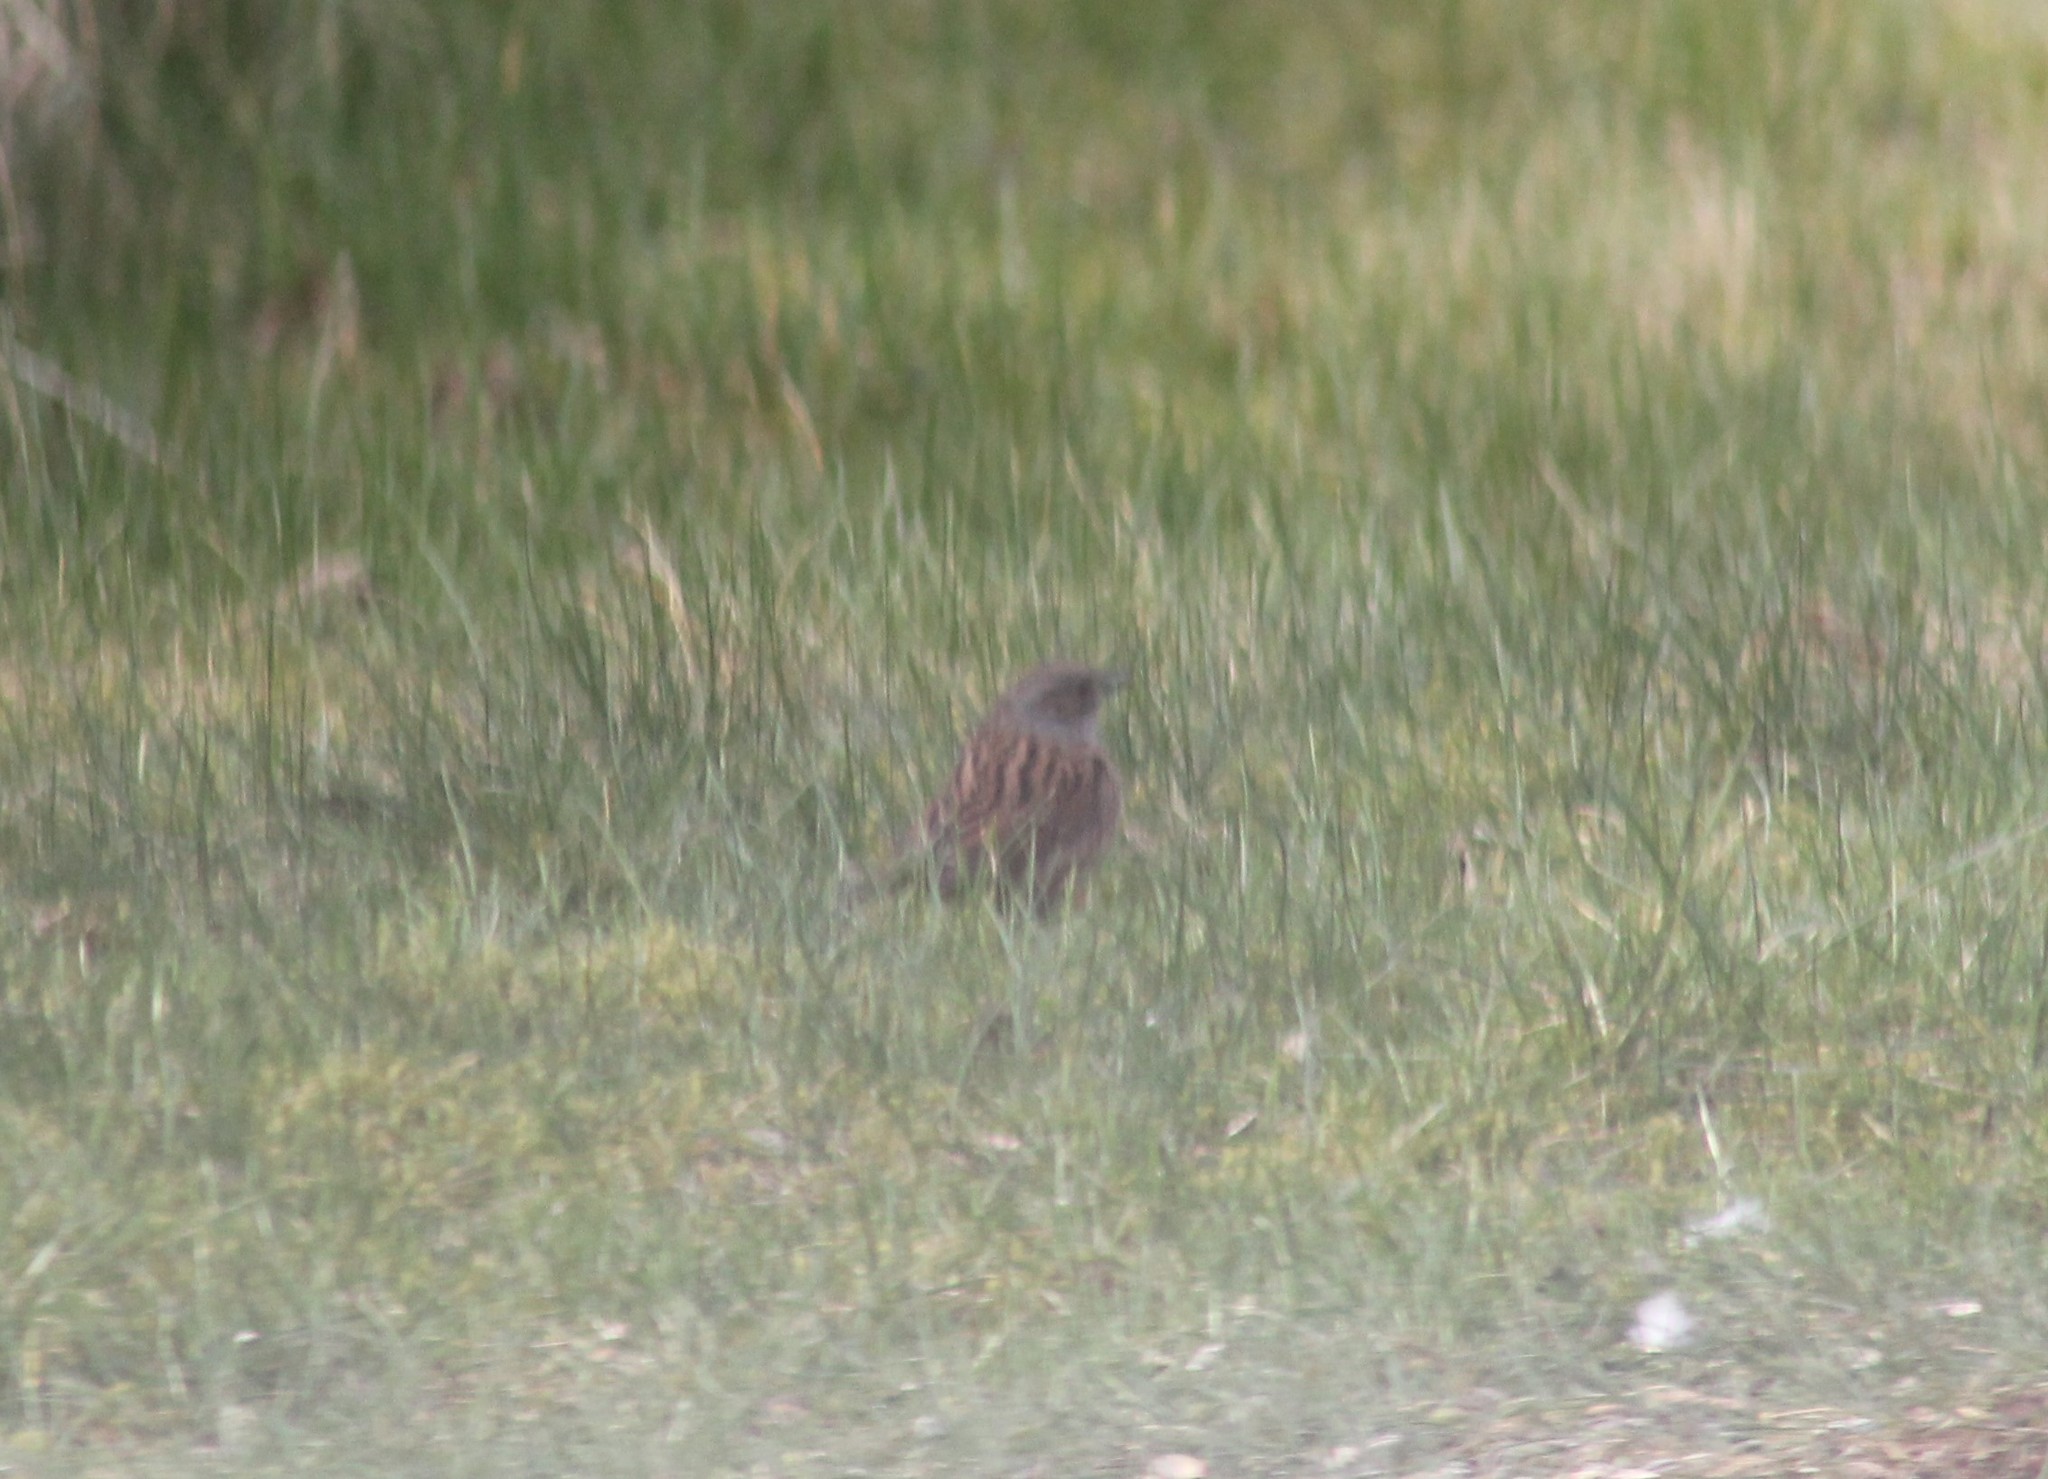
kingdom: Animalia
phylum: Chordata
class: Aves
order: Passeriformes
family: Prunellidae
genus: Prunella
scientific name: Prunella modularis
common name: Dunnock
